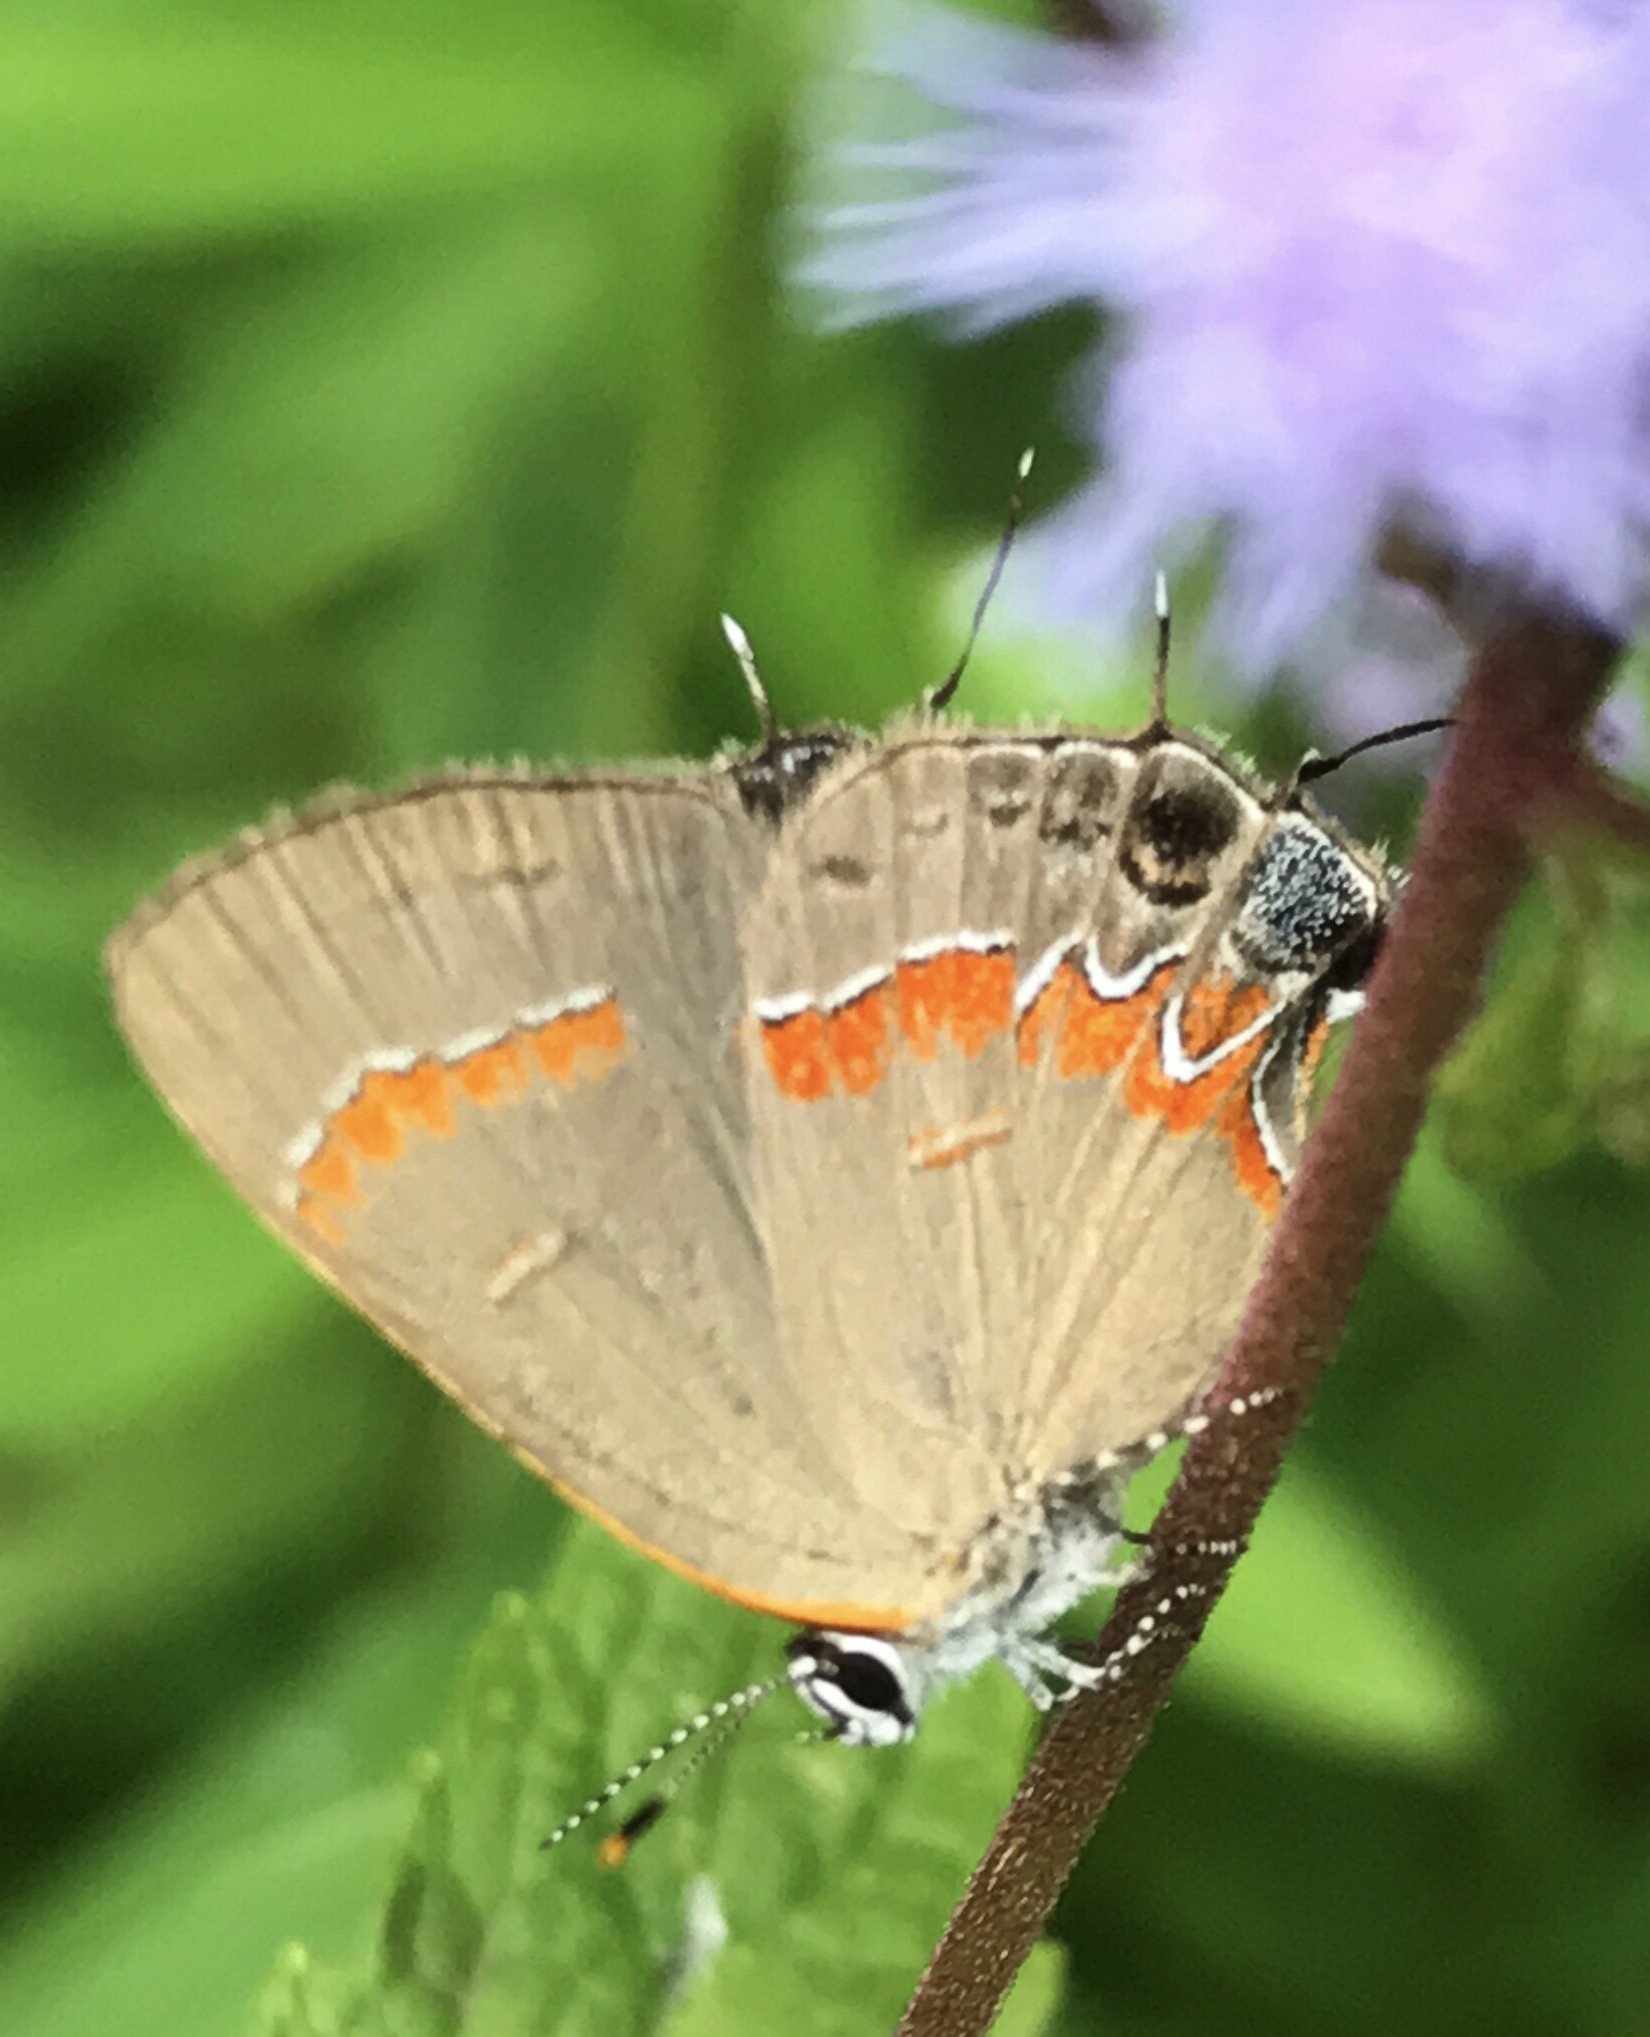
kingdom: Animalia
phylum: Arthropoda
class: Insecta
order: Lepidoptera
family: Lycaenidae
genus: Calycopis
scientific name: Calycopis cecrops
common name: Red-banded hairstreak
